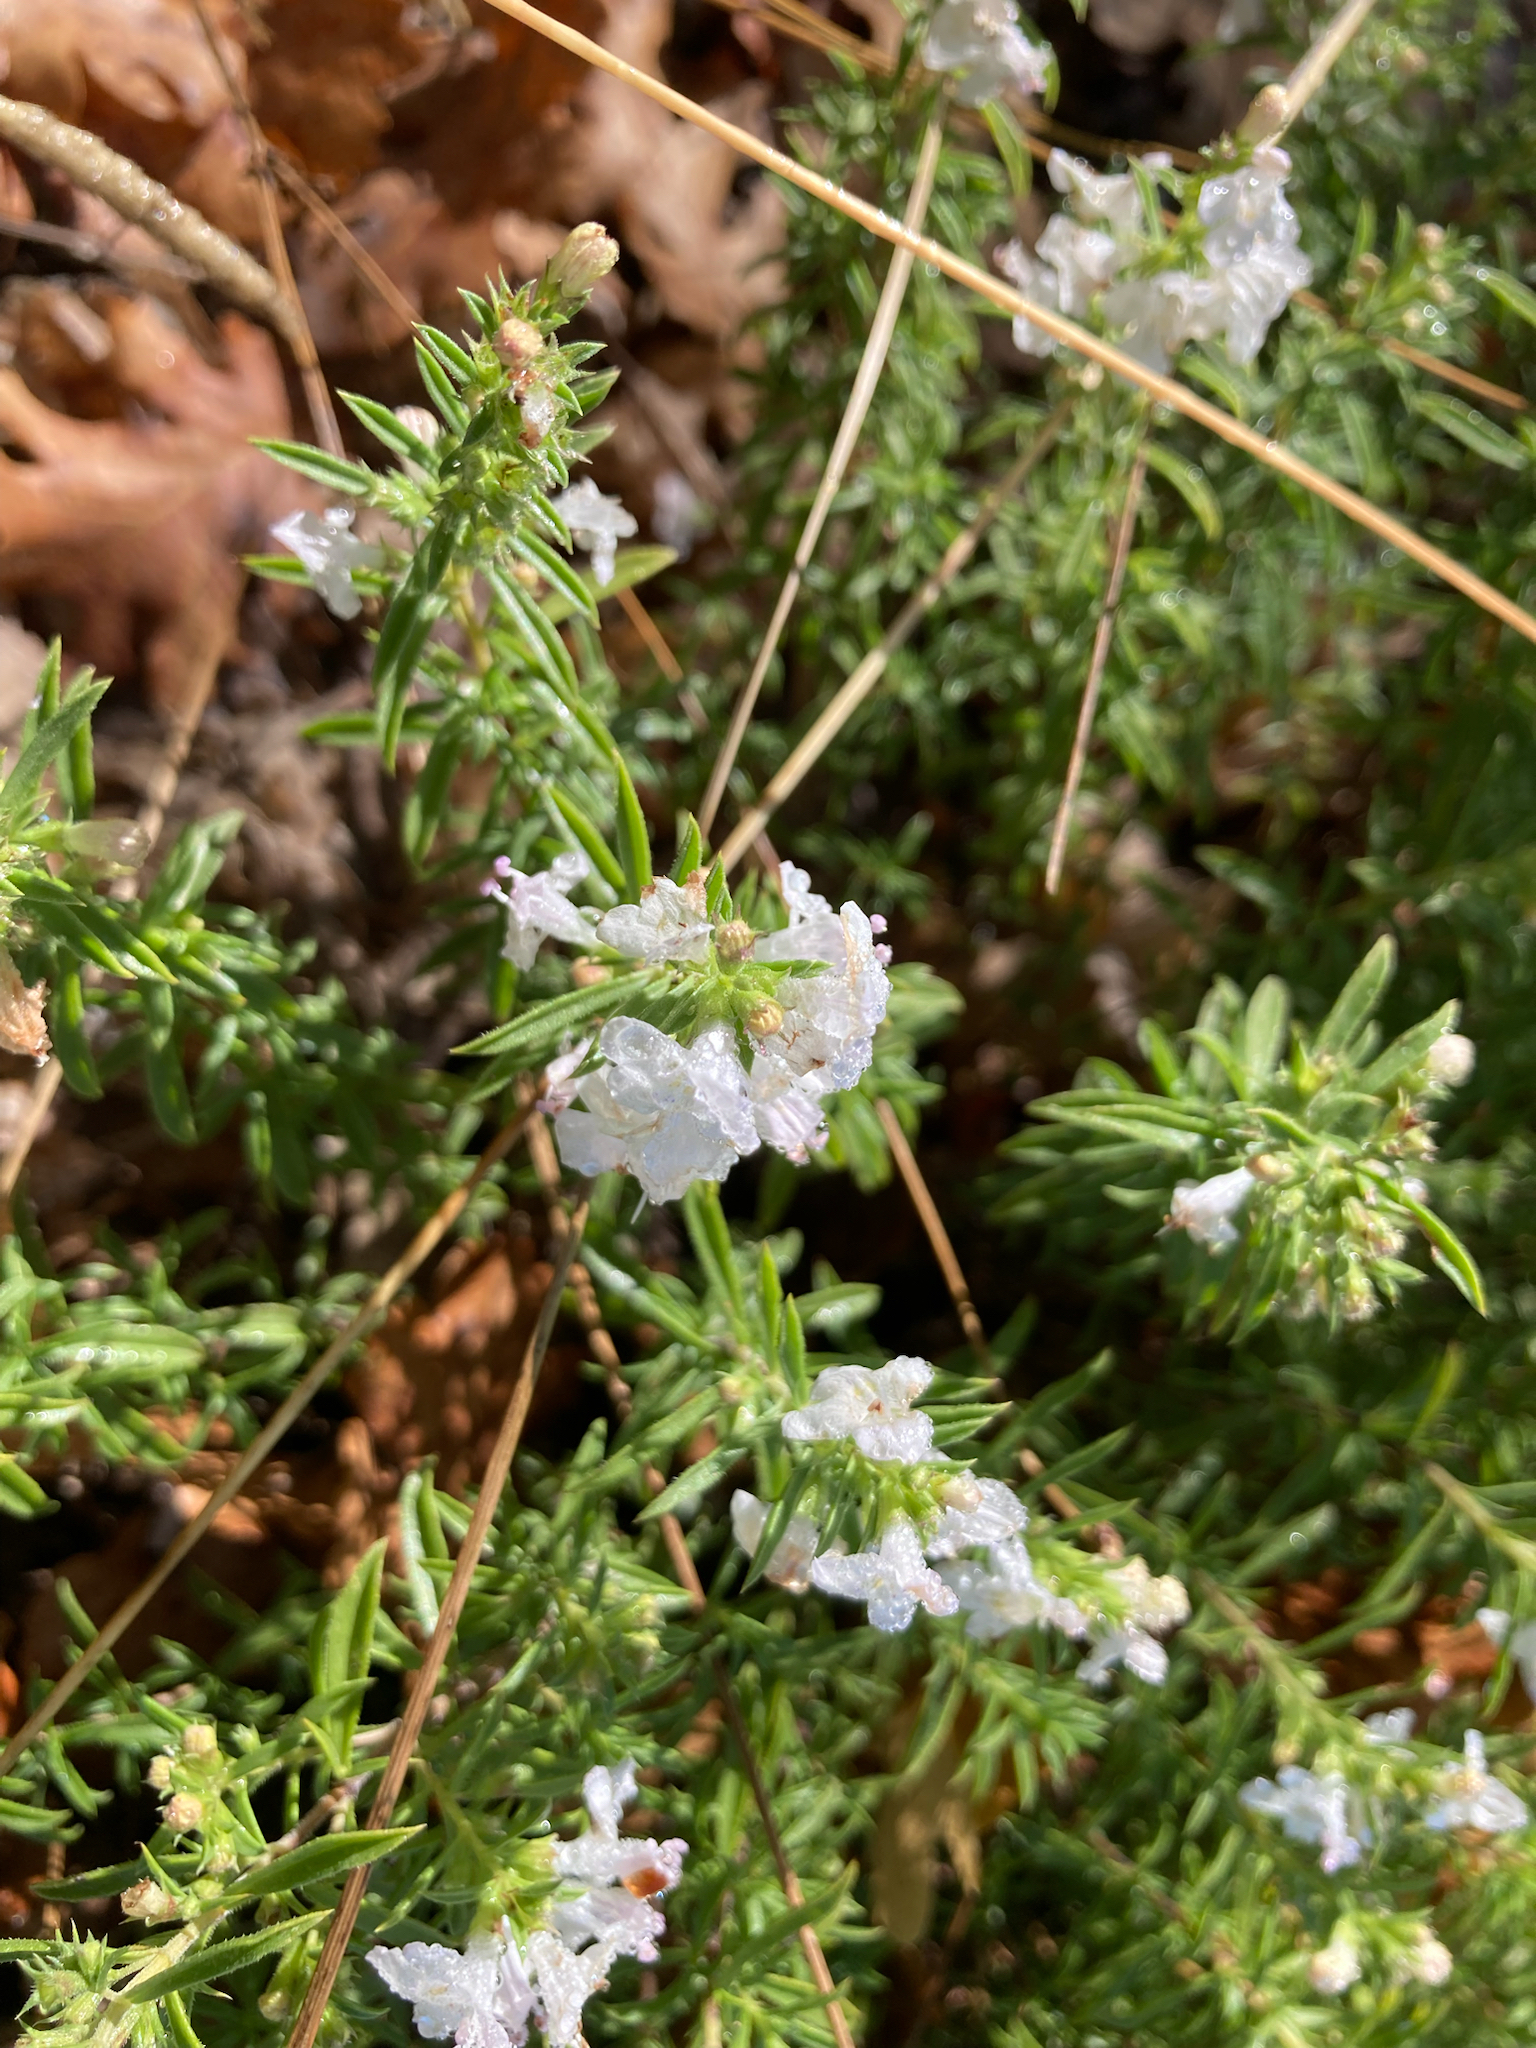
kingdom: Plantae
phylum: Tracheophyta
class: Magnoliopsida
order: Lamiales
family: Lamiaceae
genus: Satureja
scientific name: Satureja montana
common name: Winter savory
